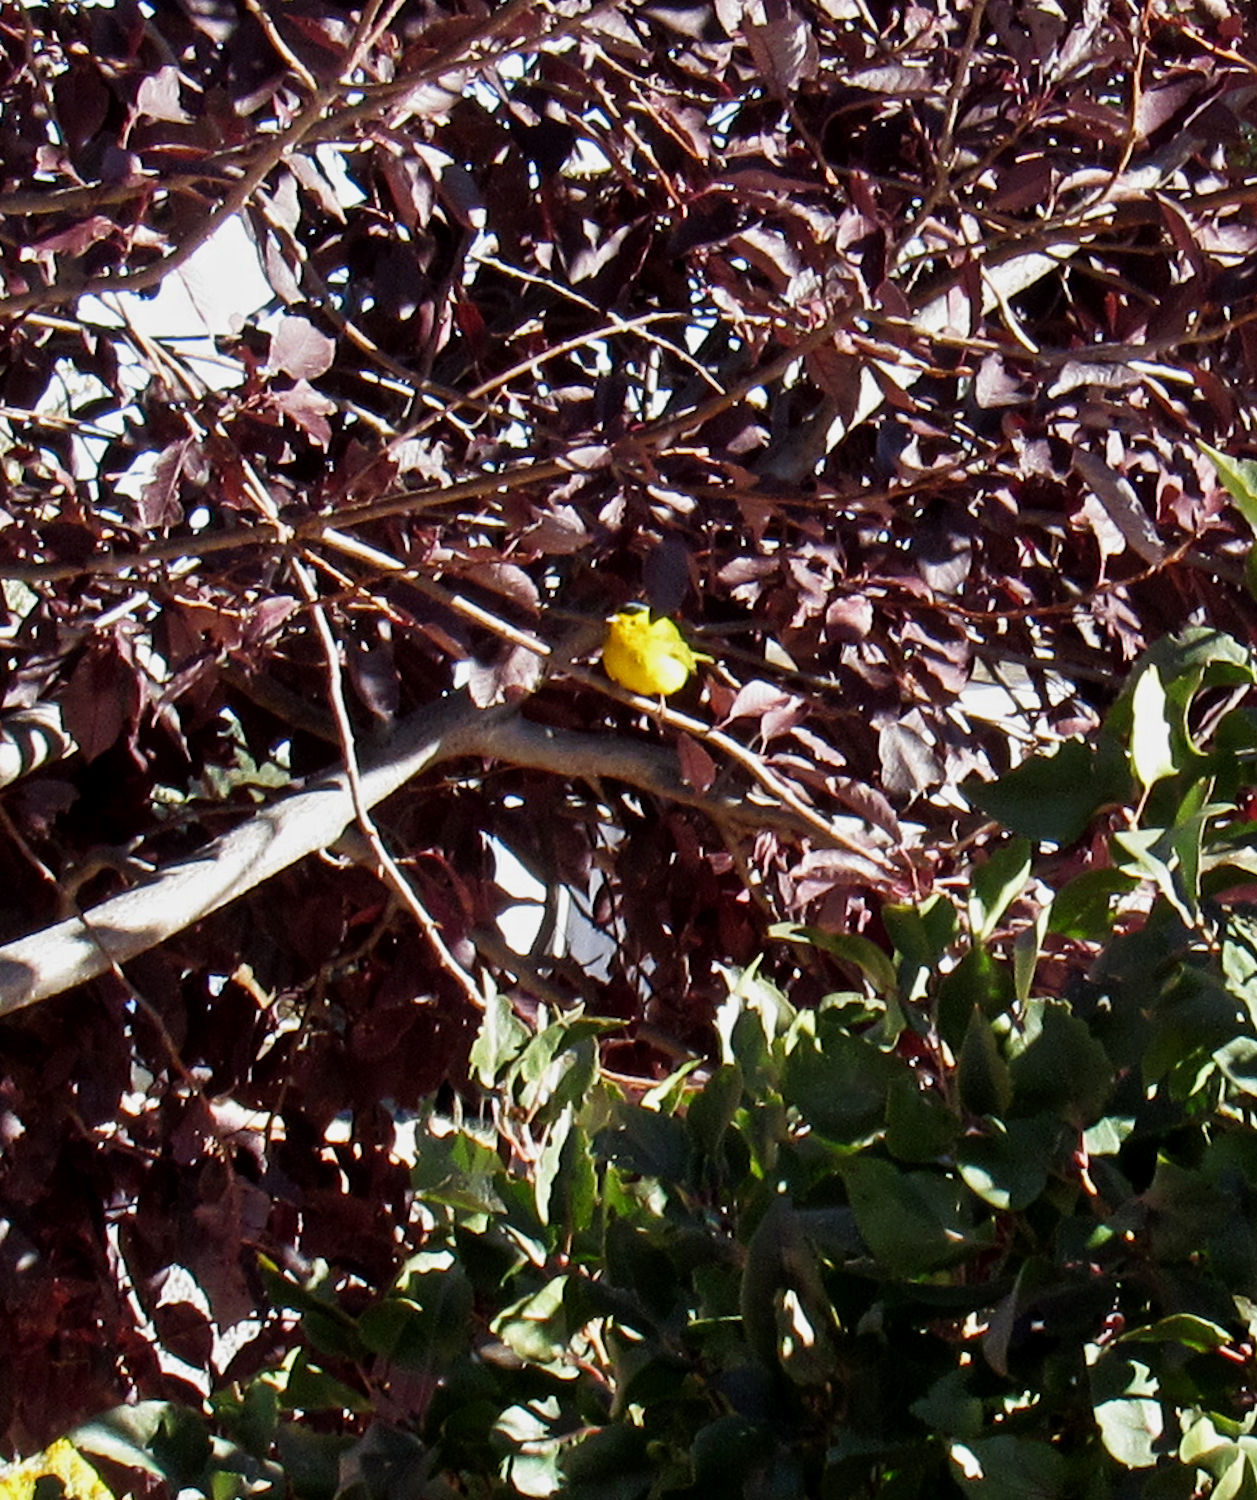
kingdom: Animalia
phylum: Chordata
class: Aves
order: Passeriformes
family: Parulidae
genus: Cardellina
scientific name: Cardellina pusilla
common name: Wilson's warbler
